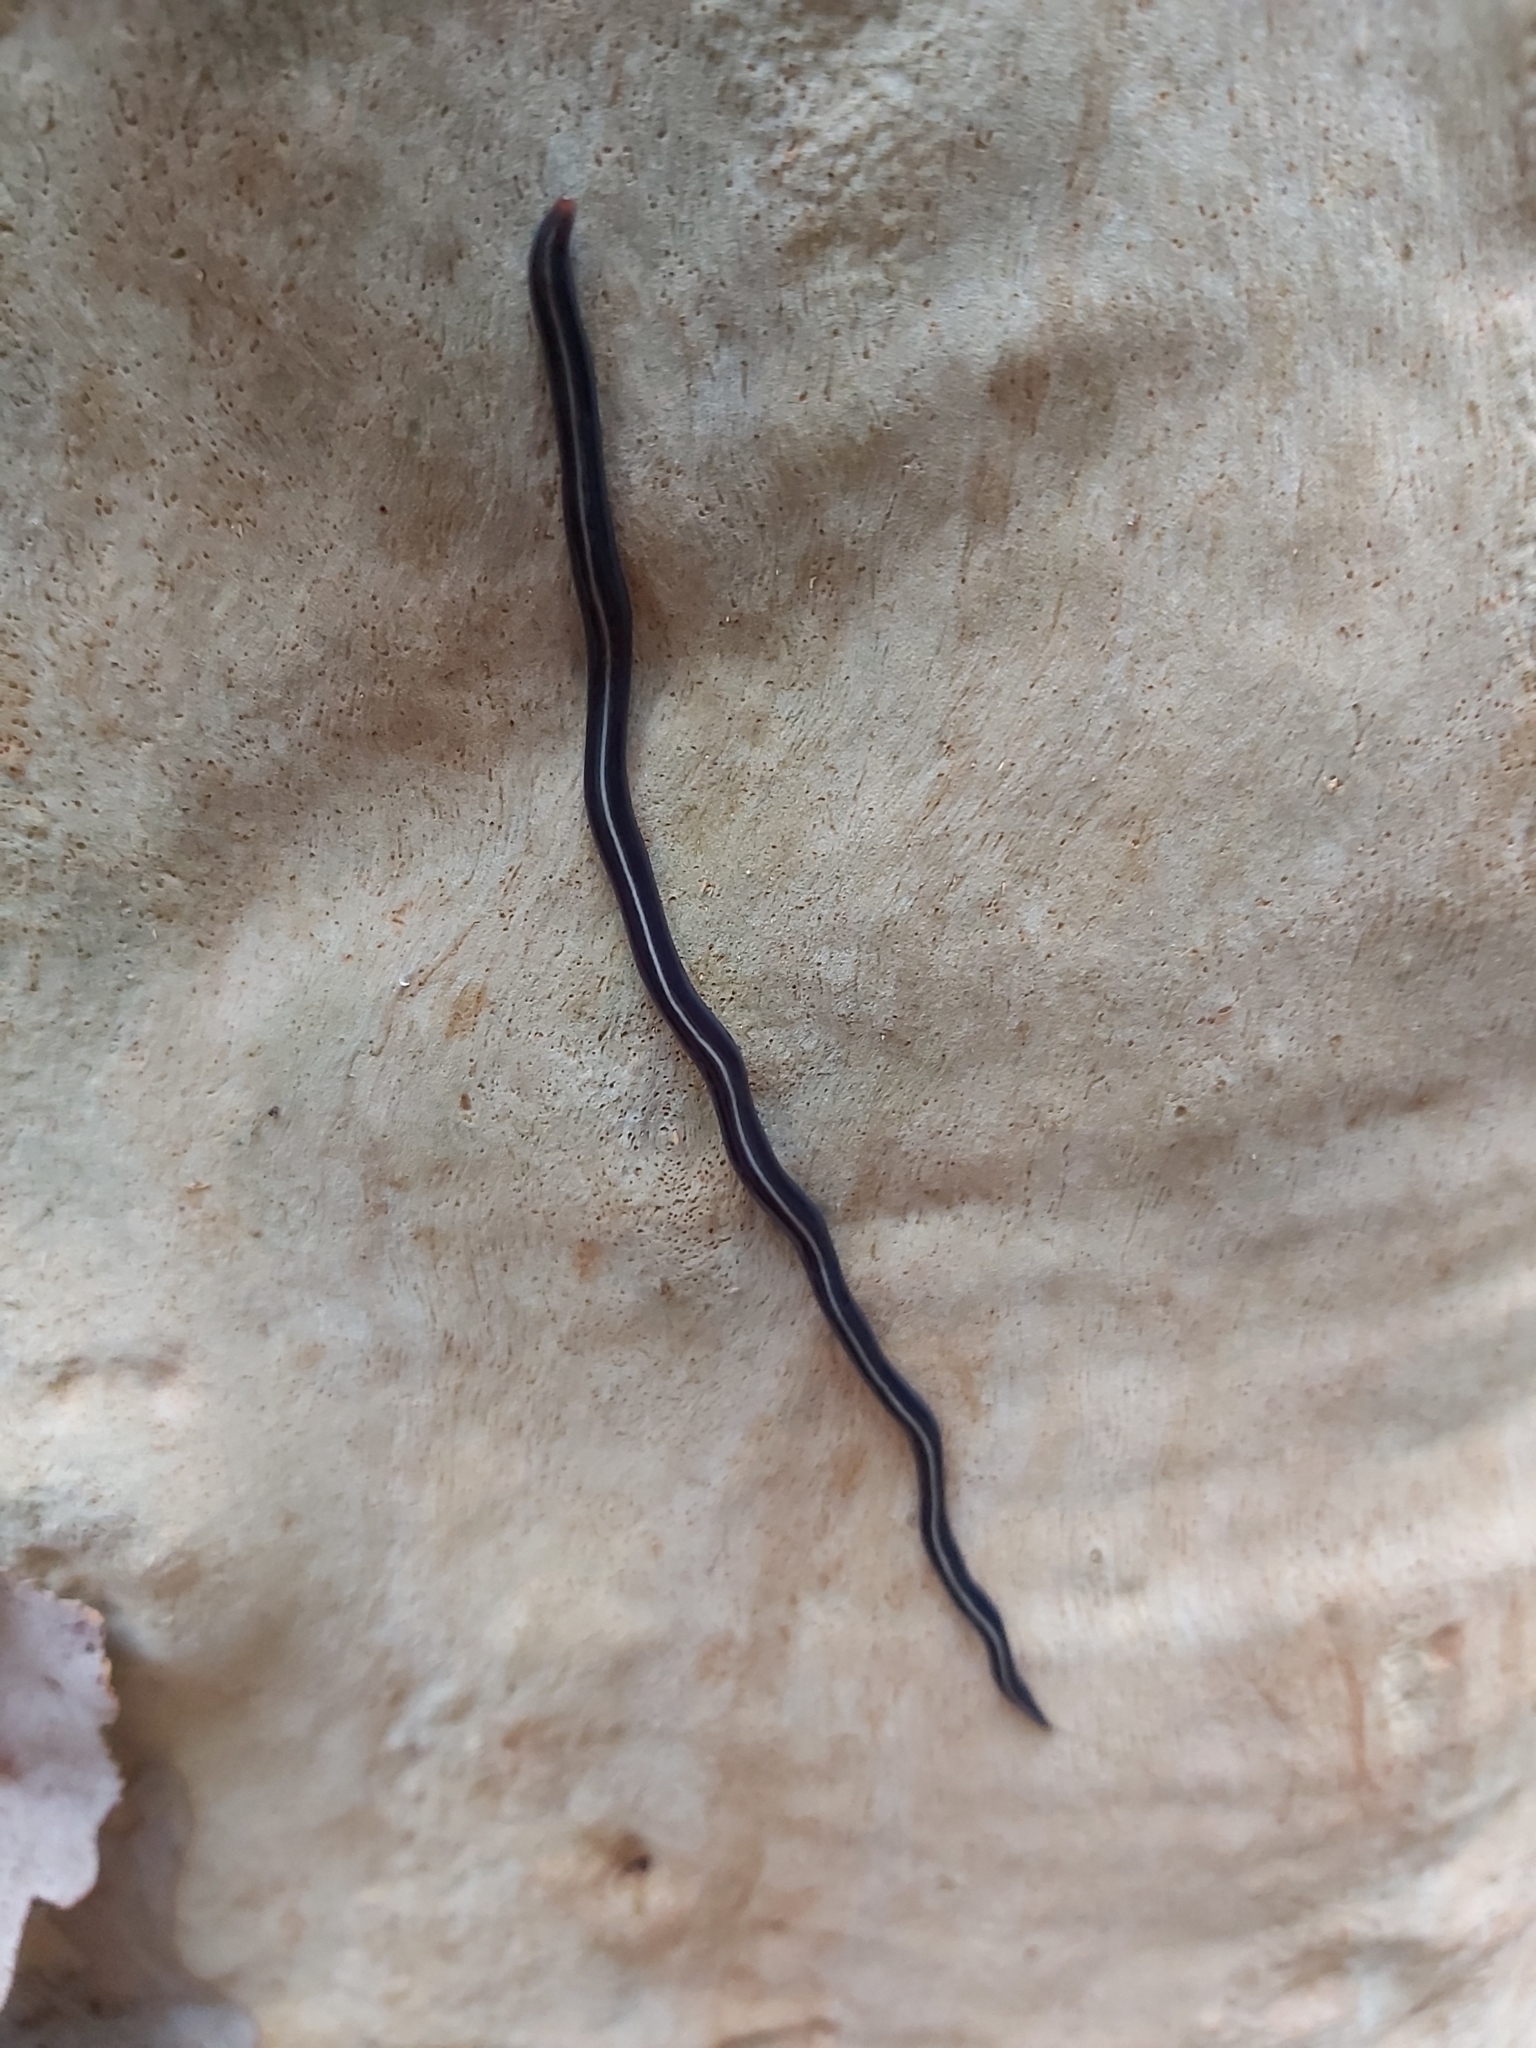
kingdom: Animalia
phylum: Platyhelminthes
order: Tricladida
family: Geoplanidae
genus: Caenoplana
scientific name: Caenoplana coerulea
